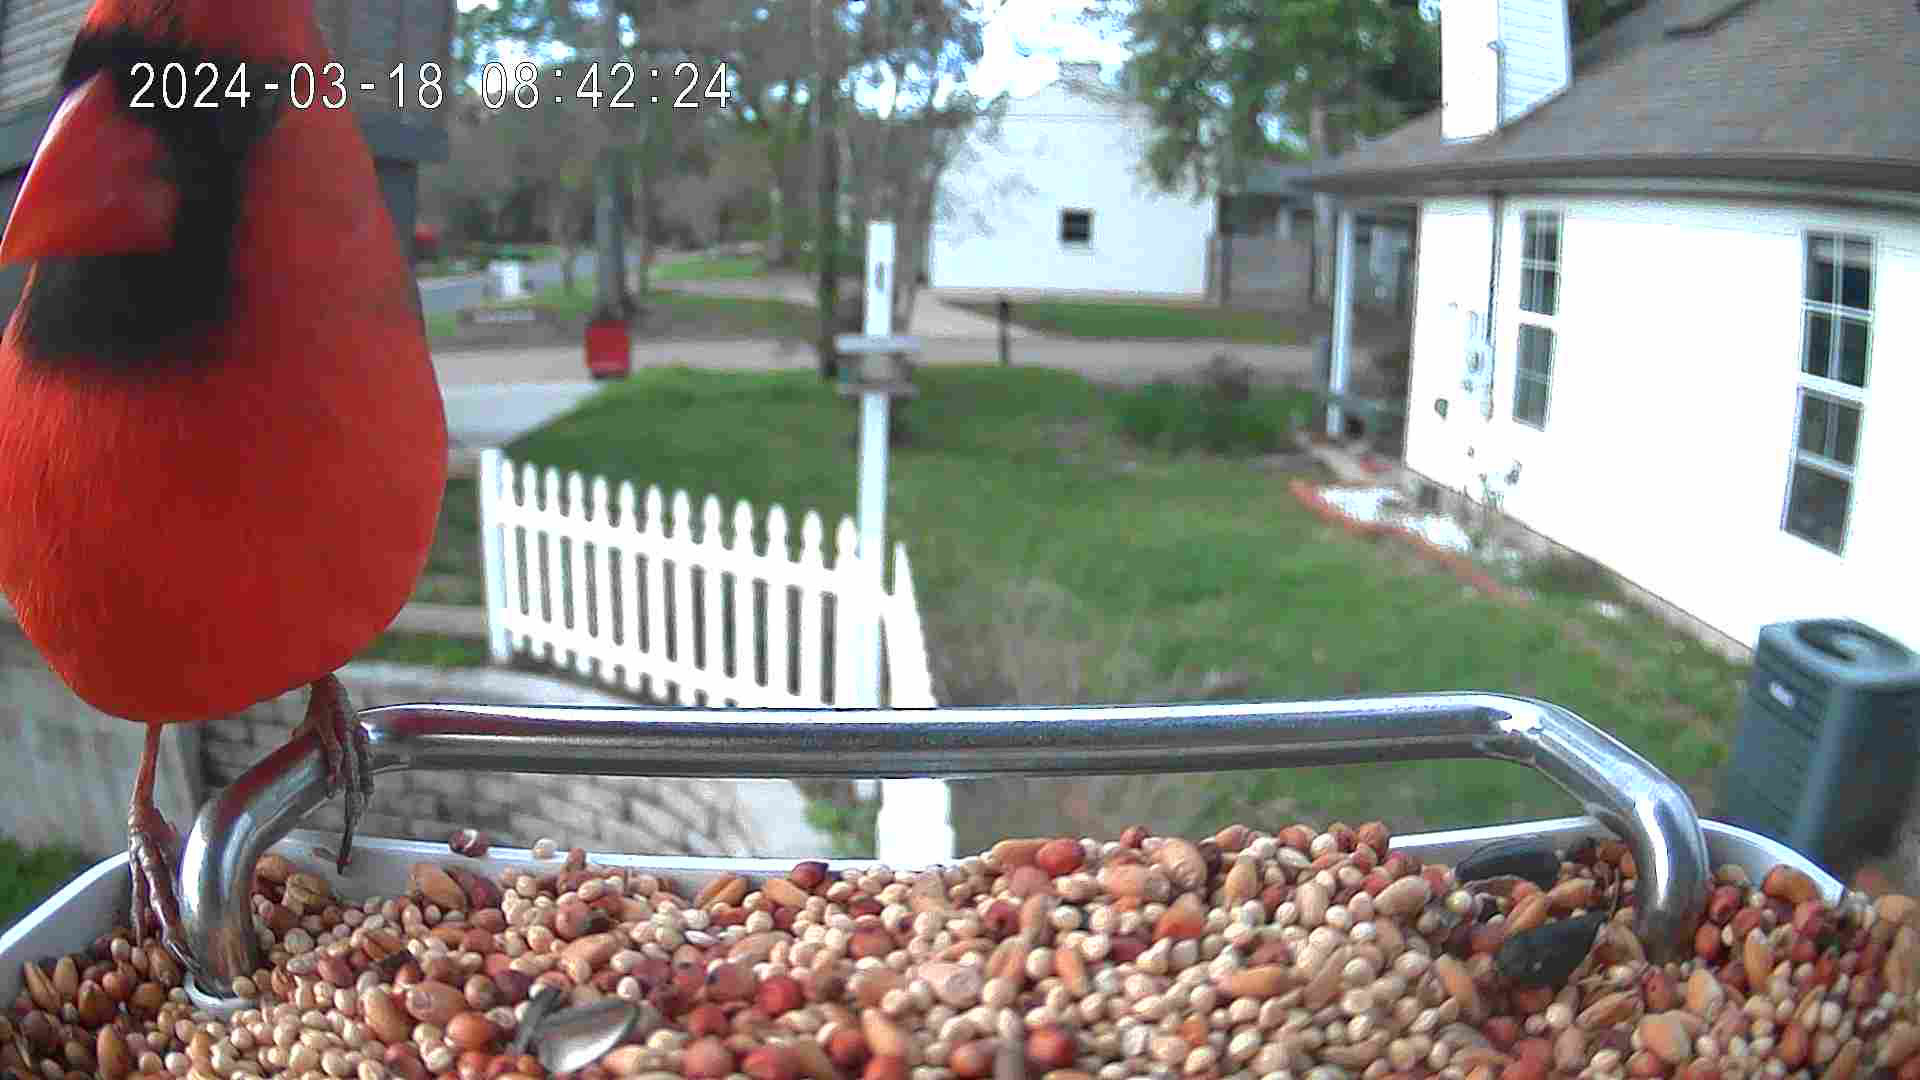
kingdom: Animalia
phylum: Chordata
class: Aves
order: Passeriformes
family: Cardinalidae
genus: Cardinalis
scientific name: Cardinalis cardinalis
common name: Northern cardinal
